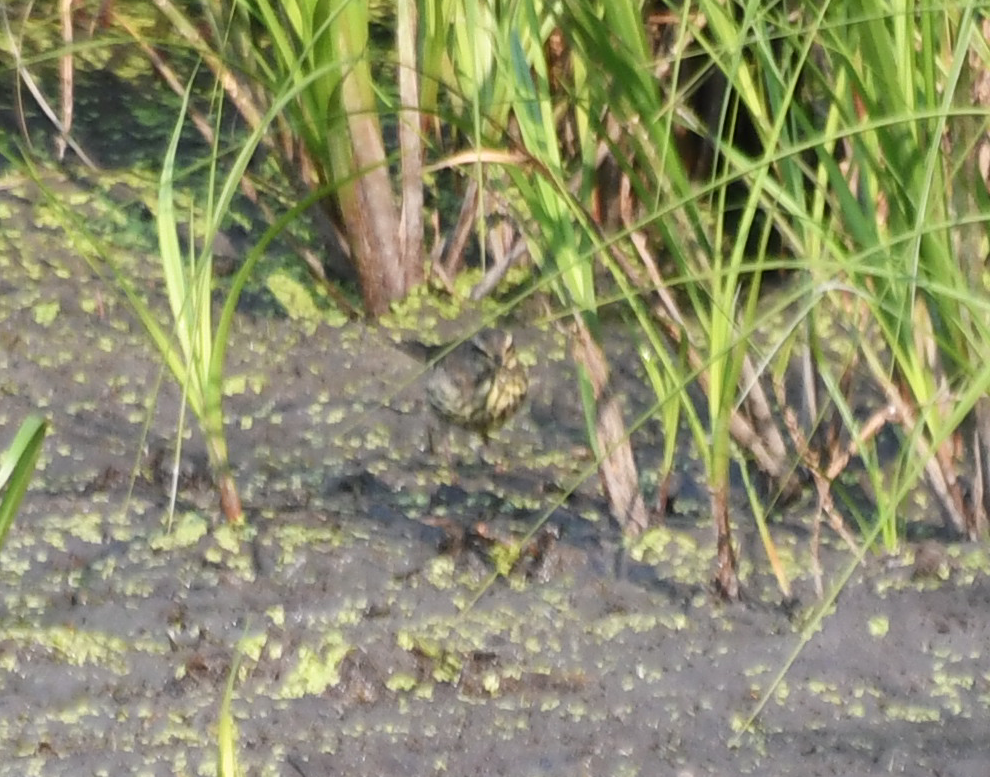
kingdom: Animalia
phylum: Chordata
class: Aves
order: Passeriformes
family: Parulidae
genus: Parkesia
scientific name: Parkesia noveboracensis
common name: Northern waterthrush
